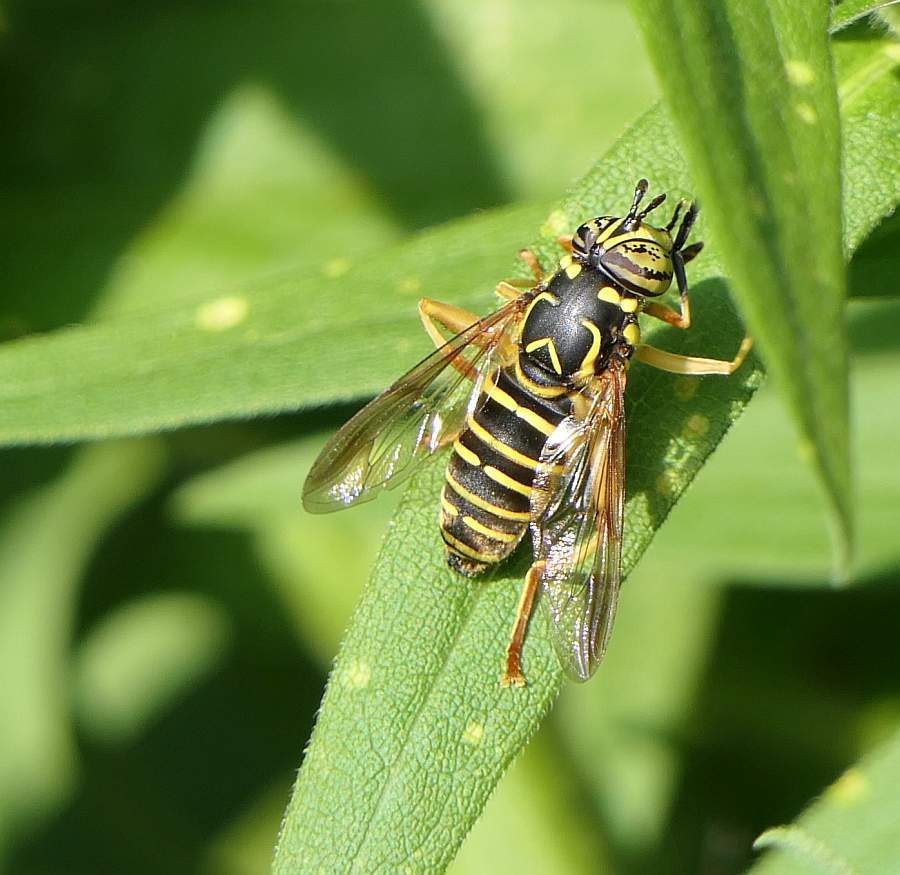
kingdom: Animalia
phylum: Arthropoda
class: Insecta
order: Diptera
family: Syrphidae
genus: Spilomyia
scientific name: Spilomyia longicornis
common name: Eastern hornet fly
